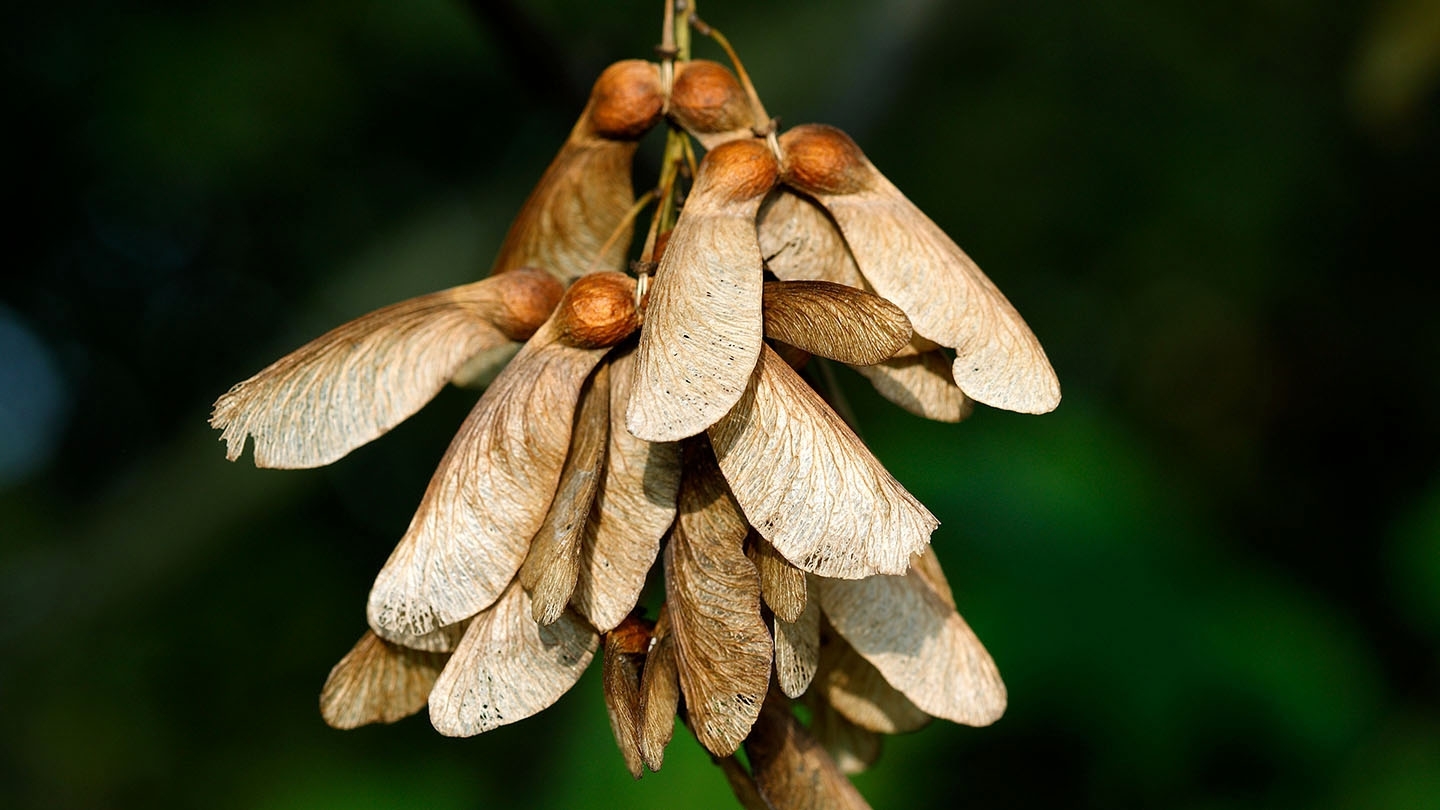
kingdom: Plantae
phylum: Tracheophyta
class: Magnoliopsida
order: Sapindales
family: Sapindaceae
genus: Acer
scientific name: Acer pseudoplatanus
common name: Sycamore
